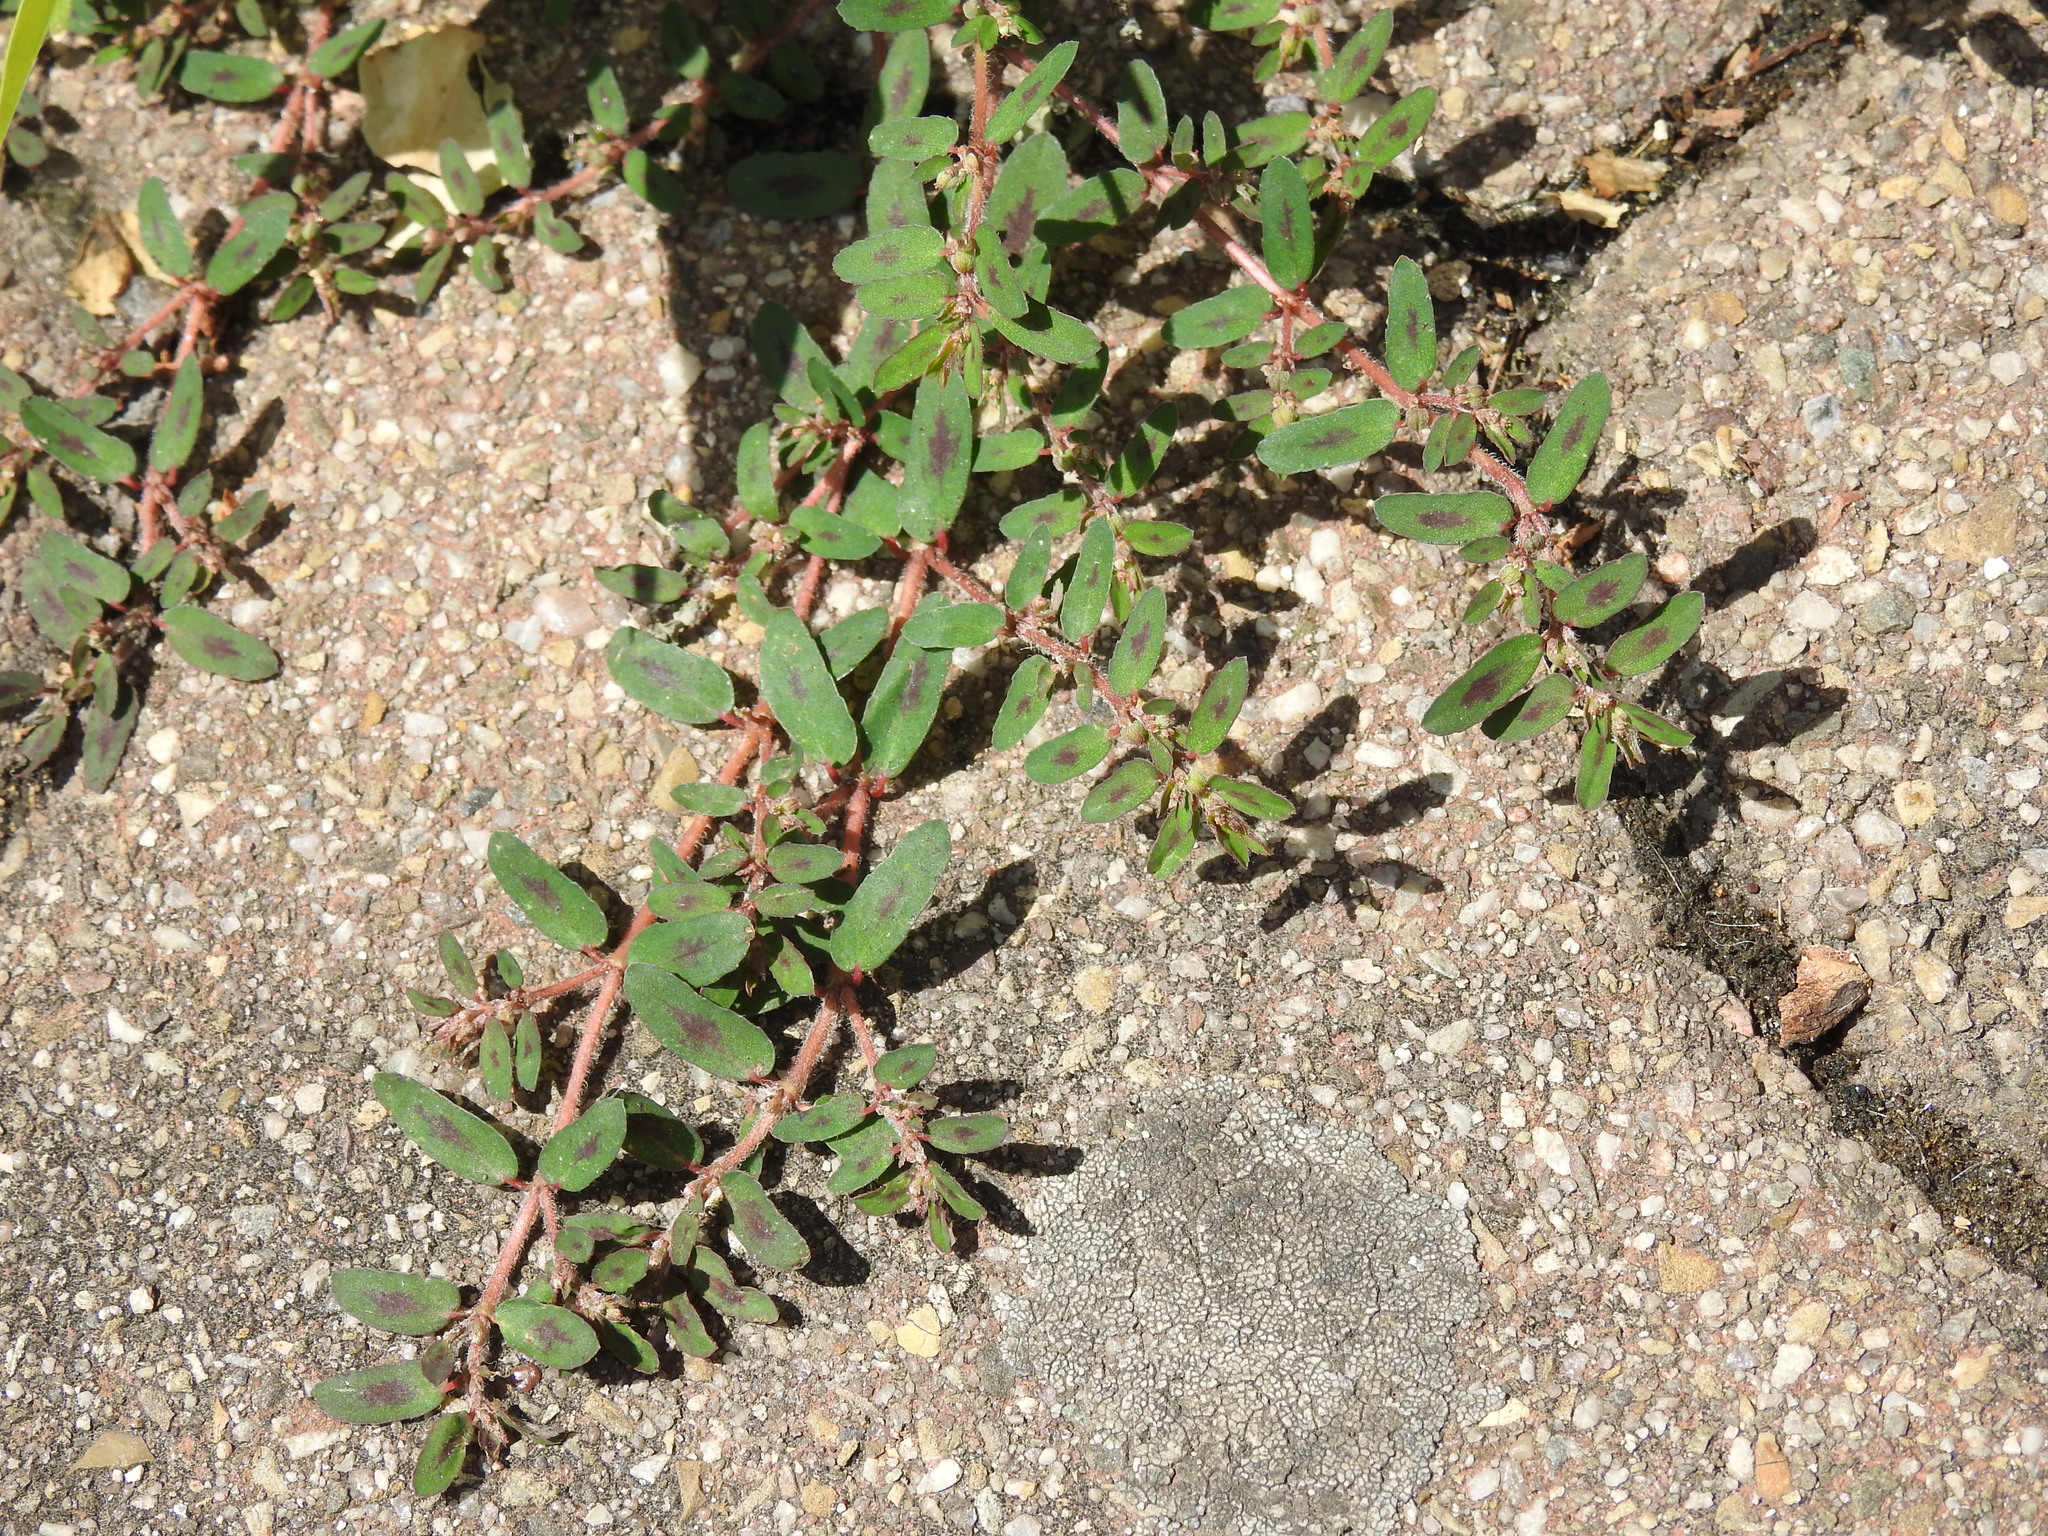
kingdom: Plantae
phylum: Tracheophyta
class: Magnoliopsida
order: Malpighiales
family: Euphorbiaceae
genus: Euphorbia
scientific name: Euphorbia maculata
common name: Spotted spurge
